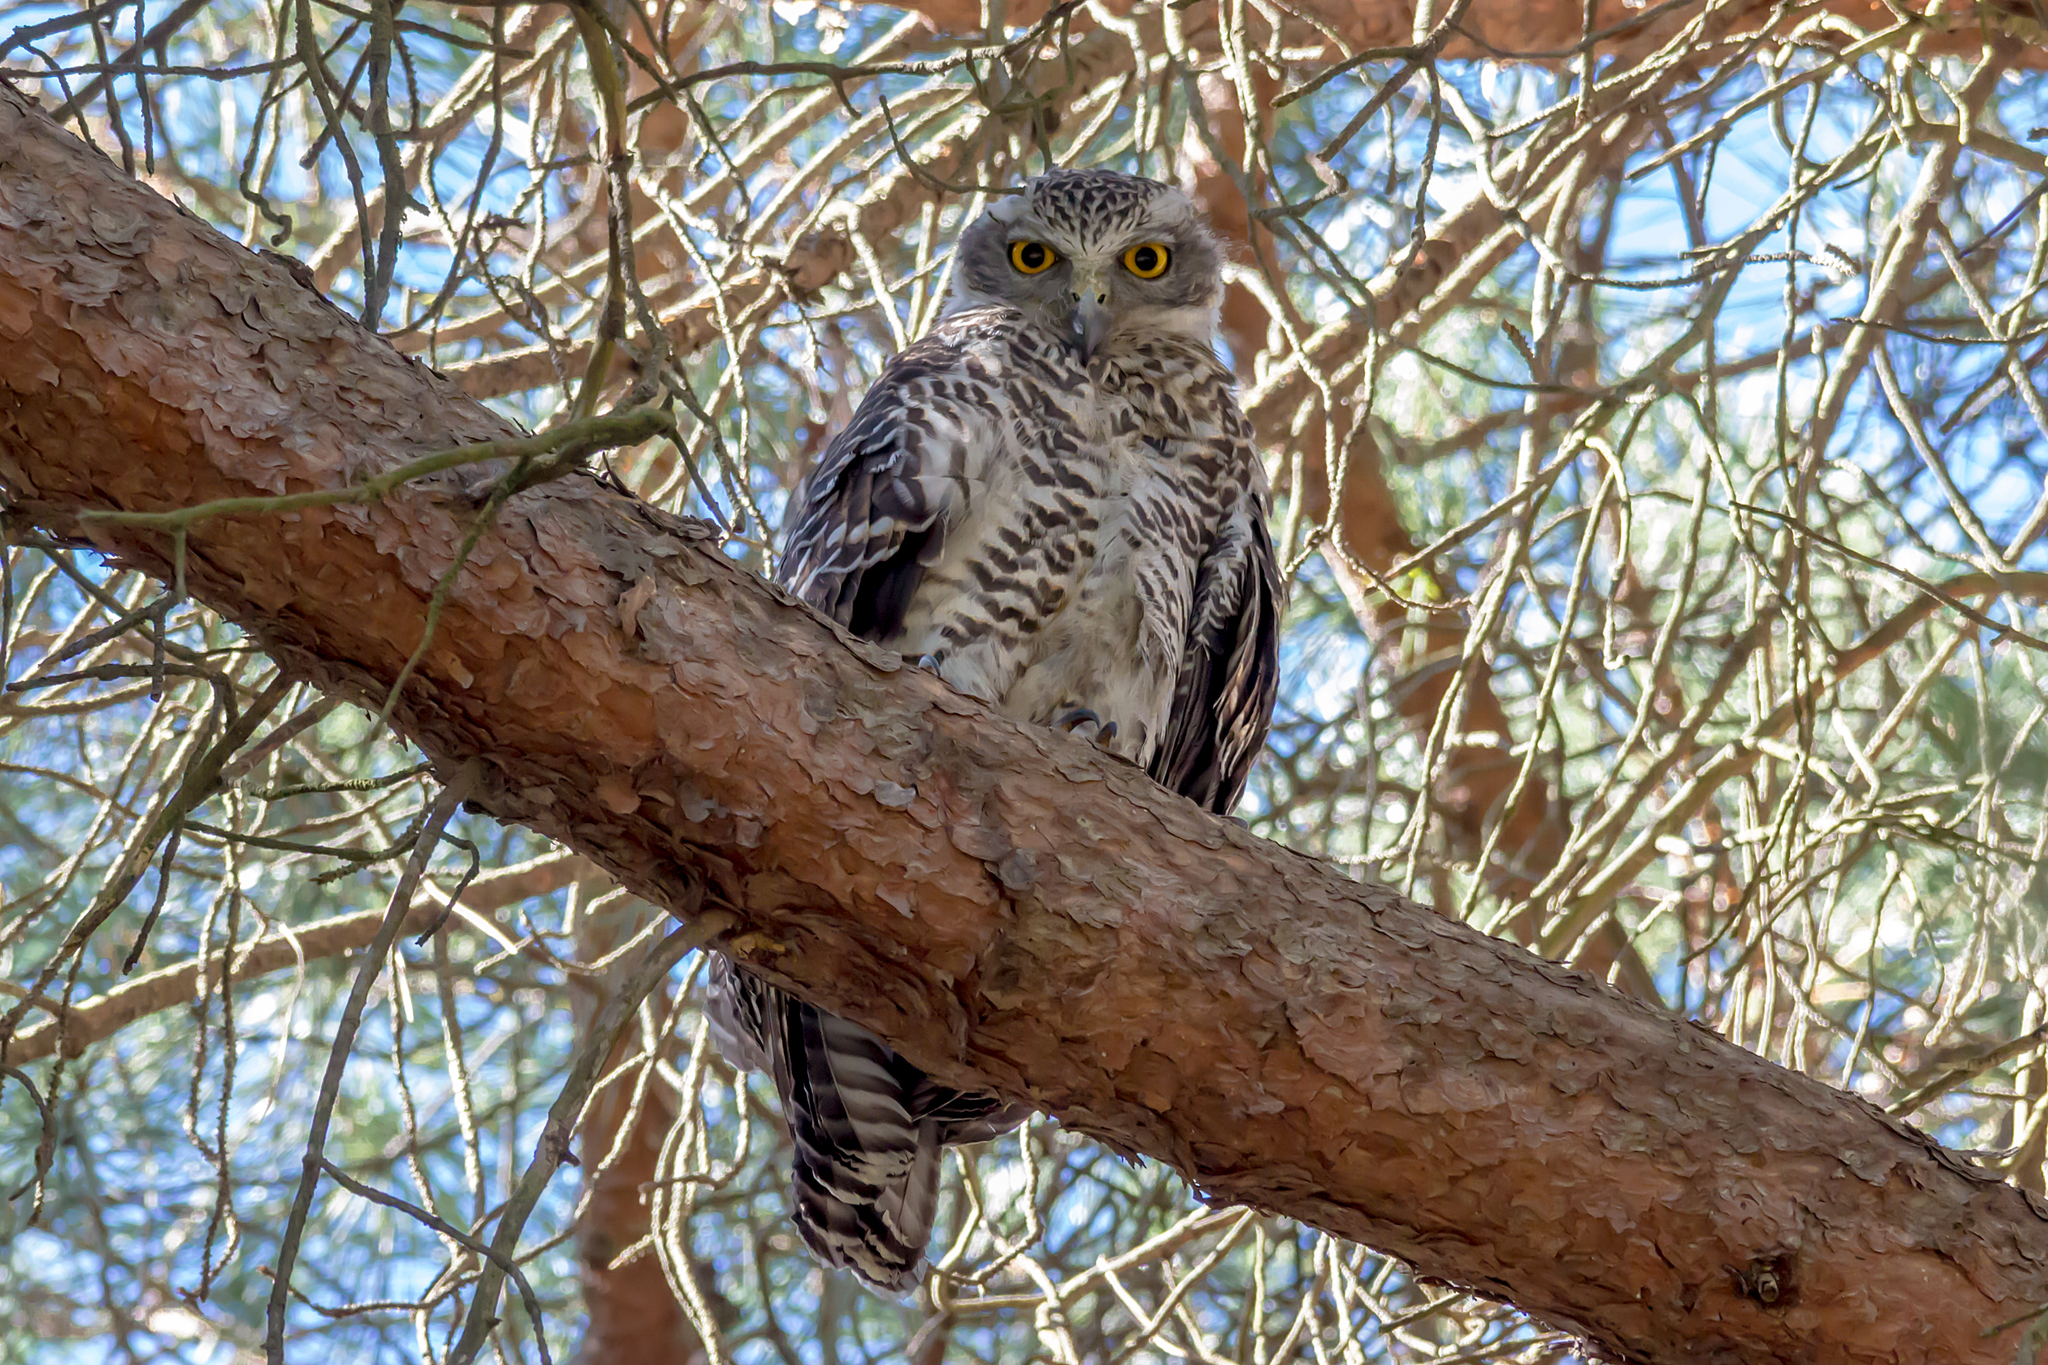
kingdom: Animalia
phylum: Chordata
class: Aves
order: Strigiformes
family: Strigidae
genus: Ninox
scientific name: Ninox strenua
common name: Powerful owl
